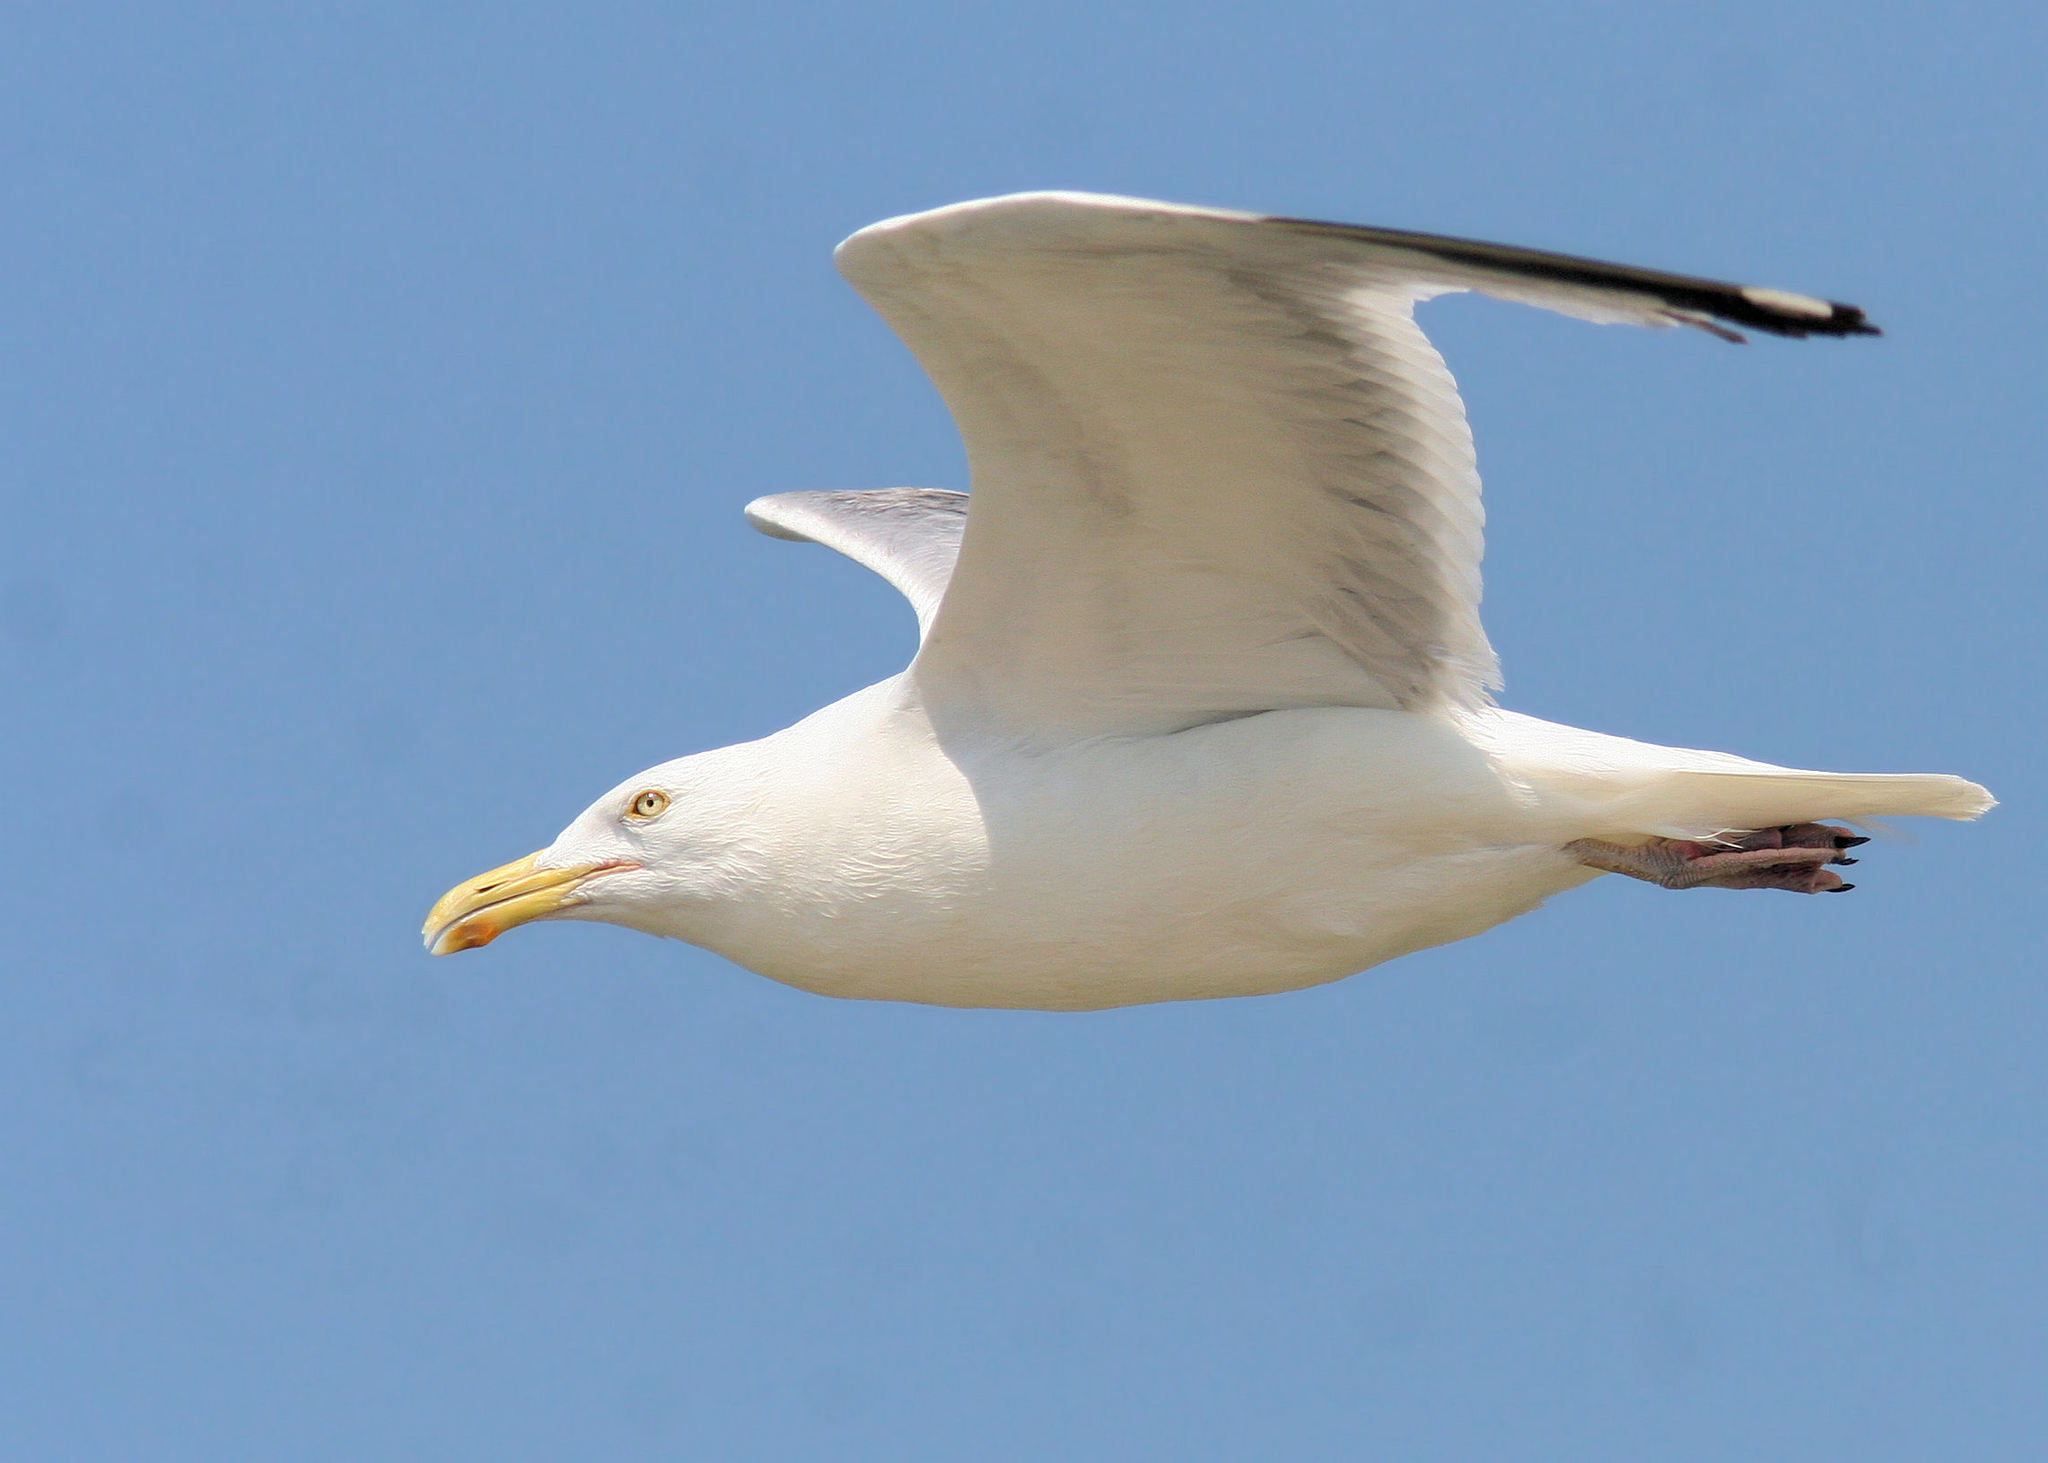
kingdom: Animalia
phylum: Chordata
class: Aves
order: Charadriiformes
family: Laridae
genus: Larus
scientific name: Larus argentatus
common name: Herring gull
